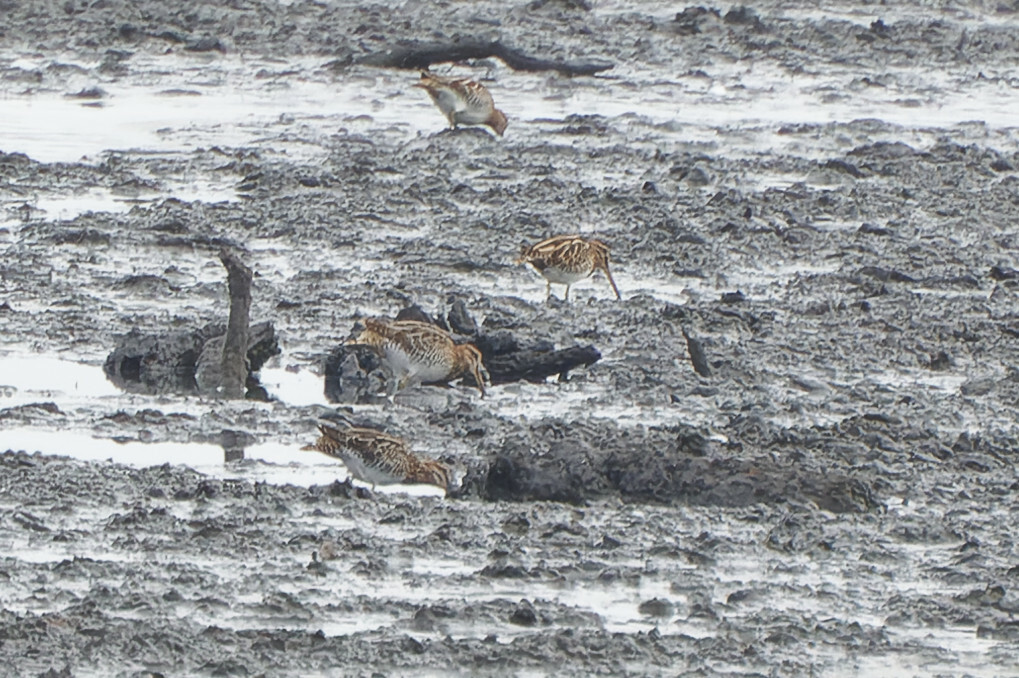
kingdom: Animalia
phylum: Chordata
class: Aves
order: Charadriiformes
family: Scolopacidae
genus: Gallinago
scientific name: Gallinago gallinago
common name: Common snipe
